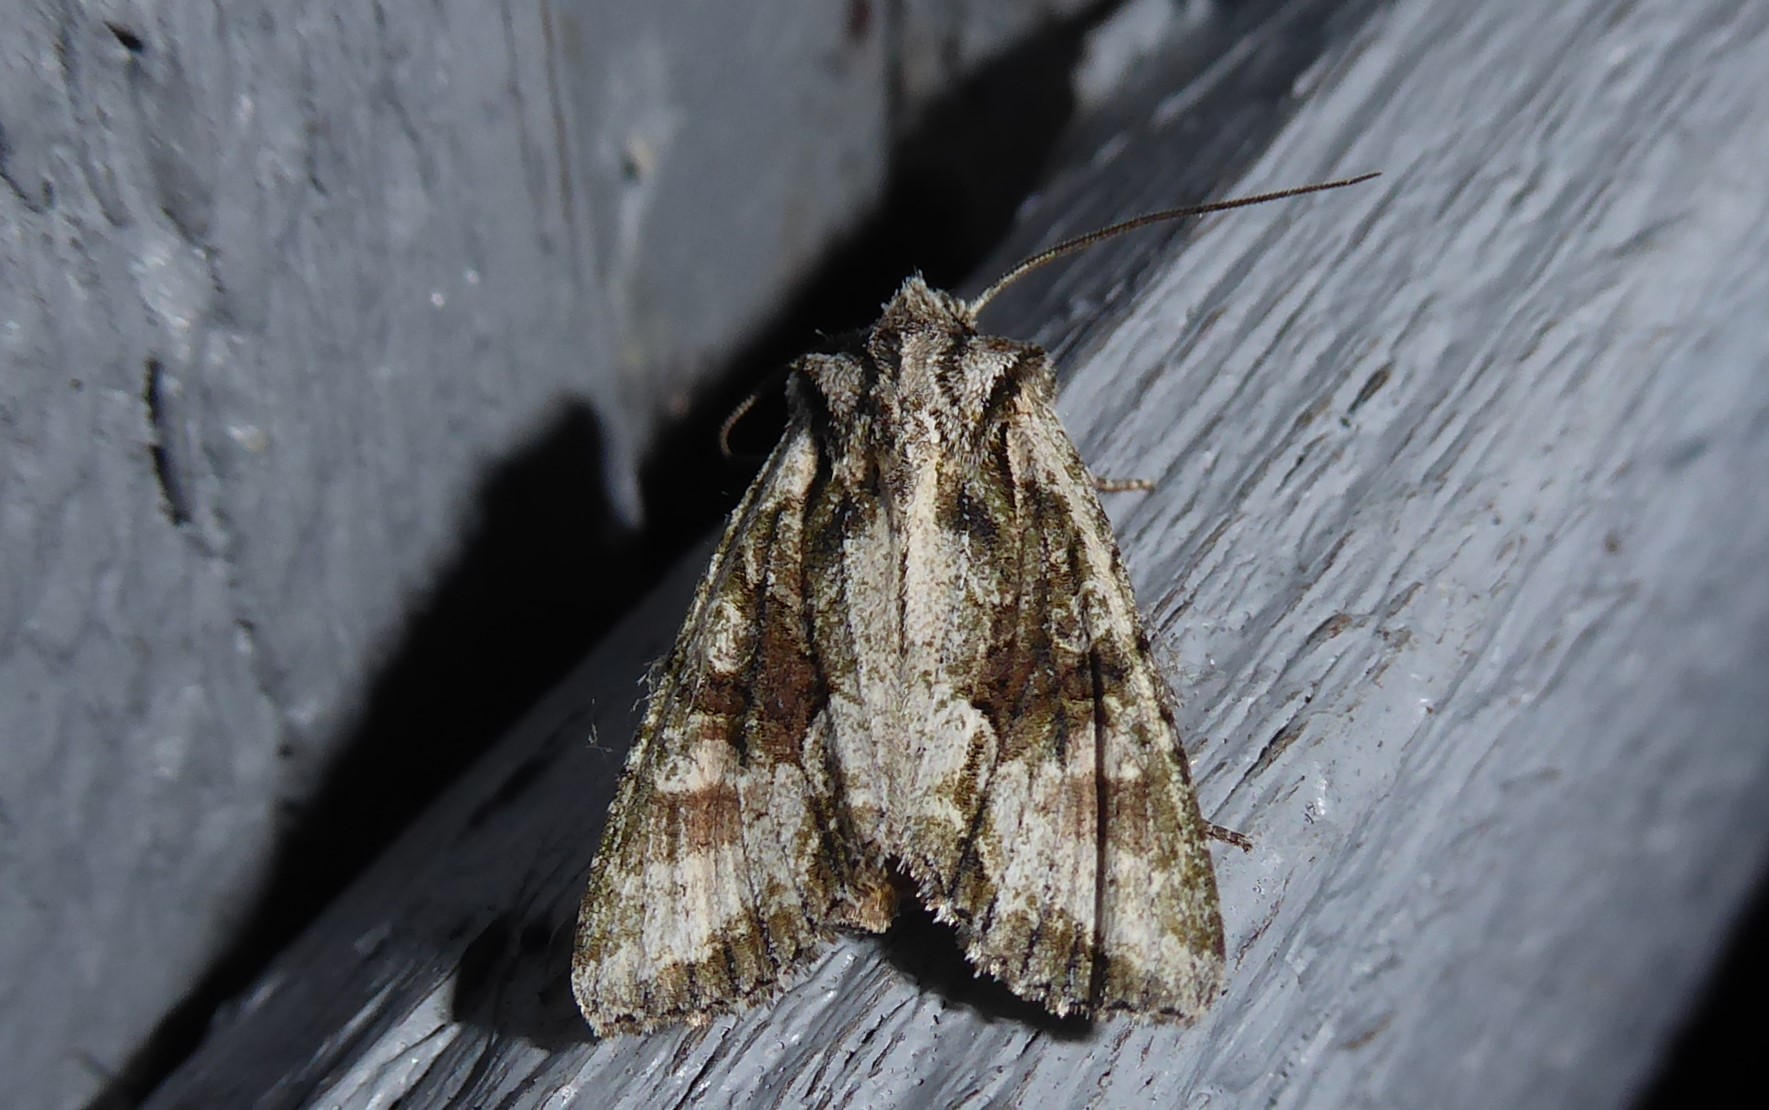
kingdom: Animalia
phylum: Arthropoda
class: Insecta
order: Lepidoptera
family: Noctuidae
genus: Ichneutica
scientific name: Ichneutica mutans
